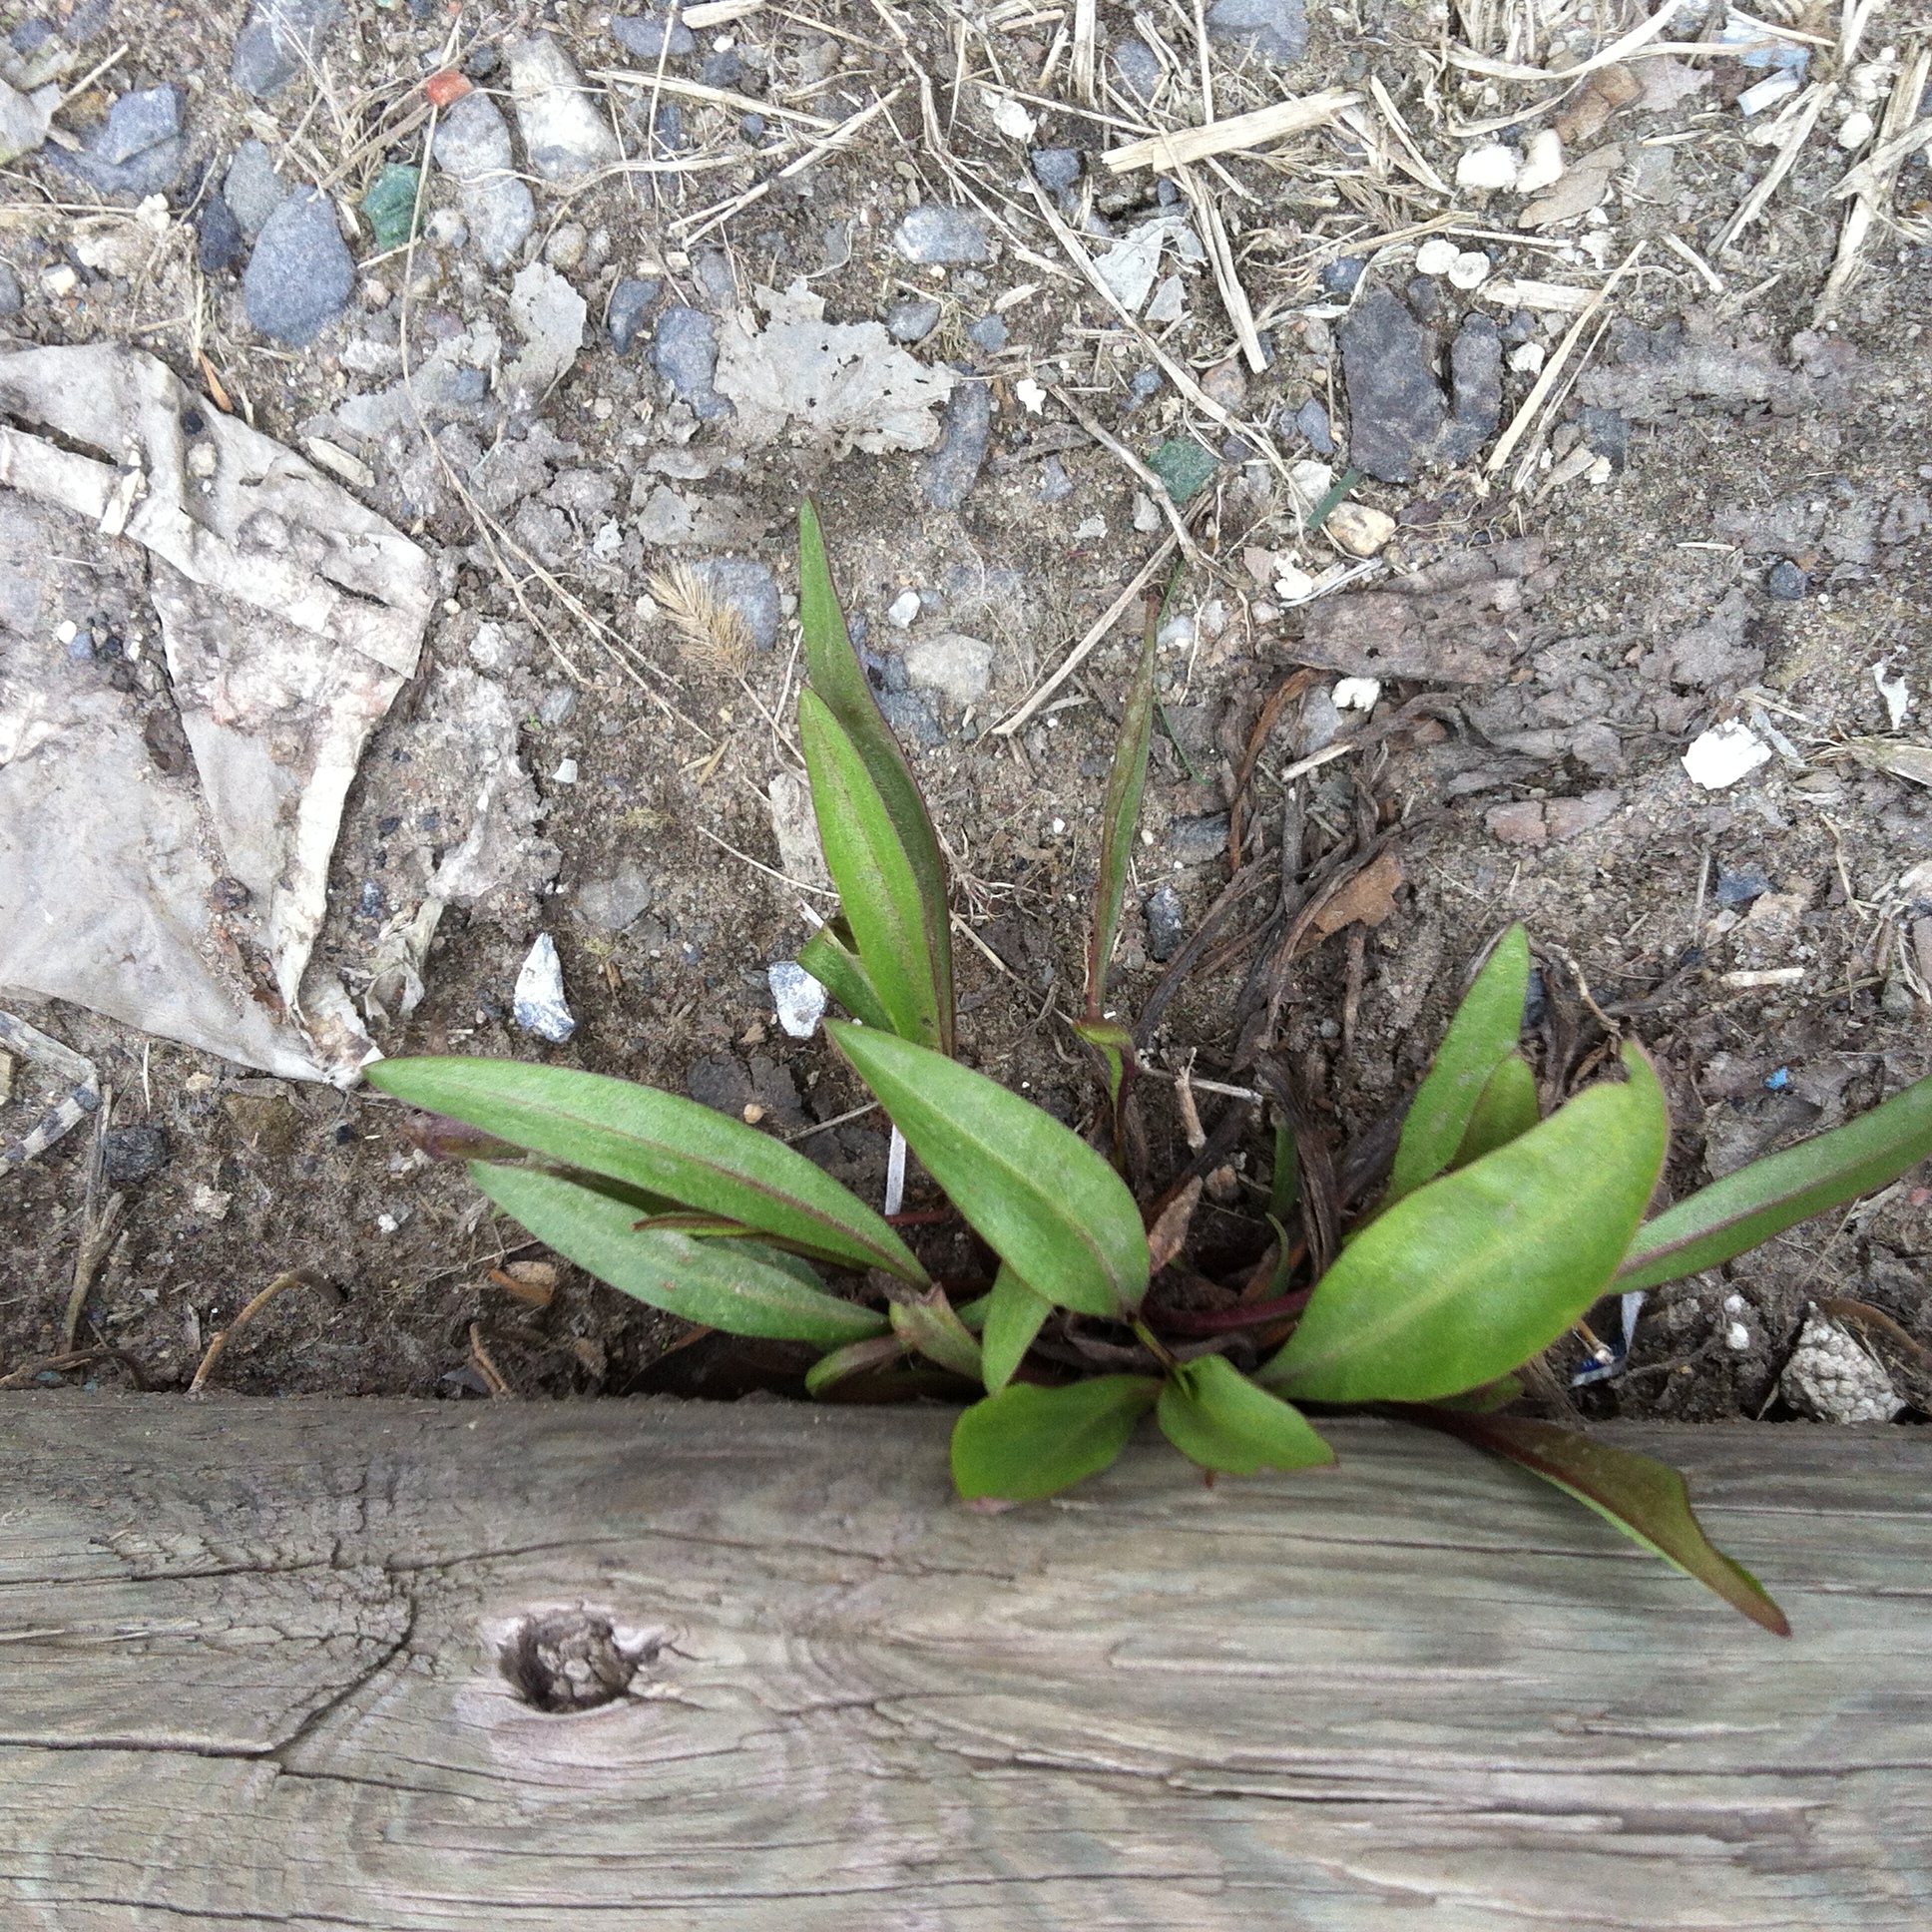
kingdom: Plantae
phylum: Tracheophyta
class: Magnoliopsida
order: Asterales
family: Asteraceae
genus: Solidago
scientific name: Solidago sempervirens
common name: Salt-marsh goldenrod
